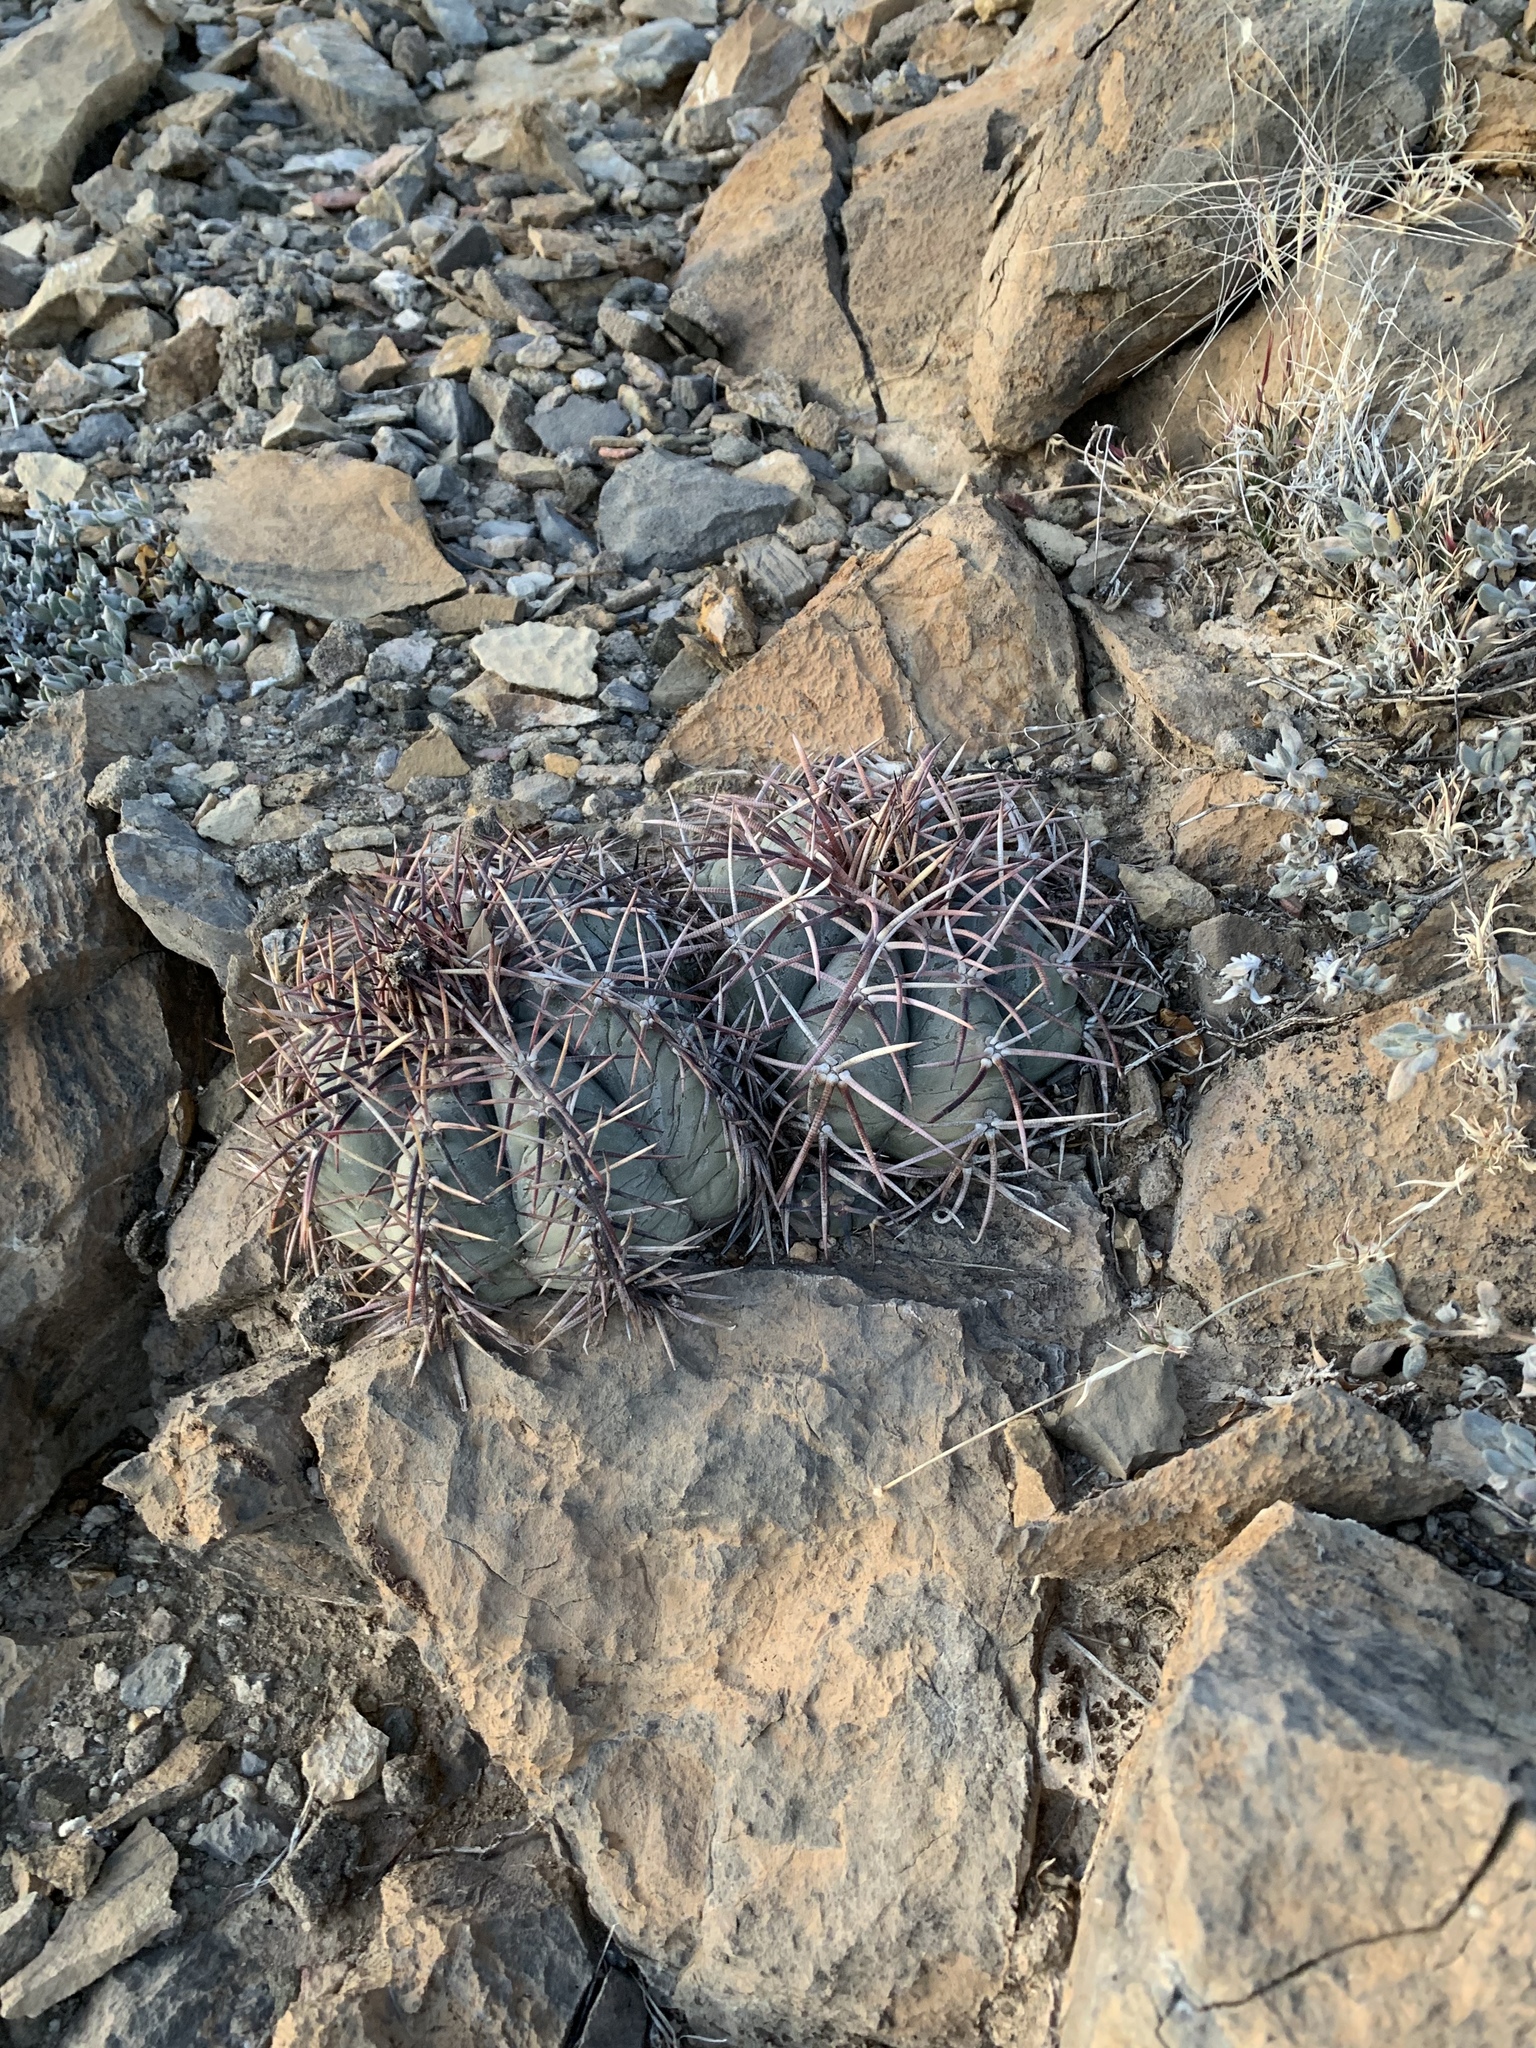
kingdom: Plantae
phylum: Tracheophyta
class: Magnoliopsida
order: Caryophyllales
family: Cactaceae
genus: Echinocactus
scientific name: Echinocactus horizonthalonius
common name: Devilshead
